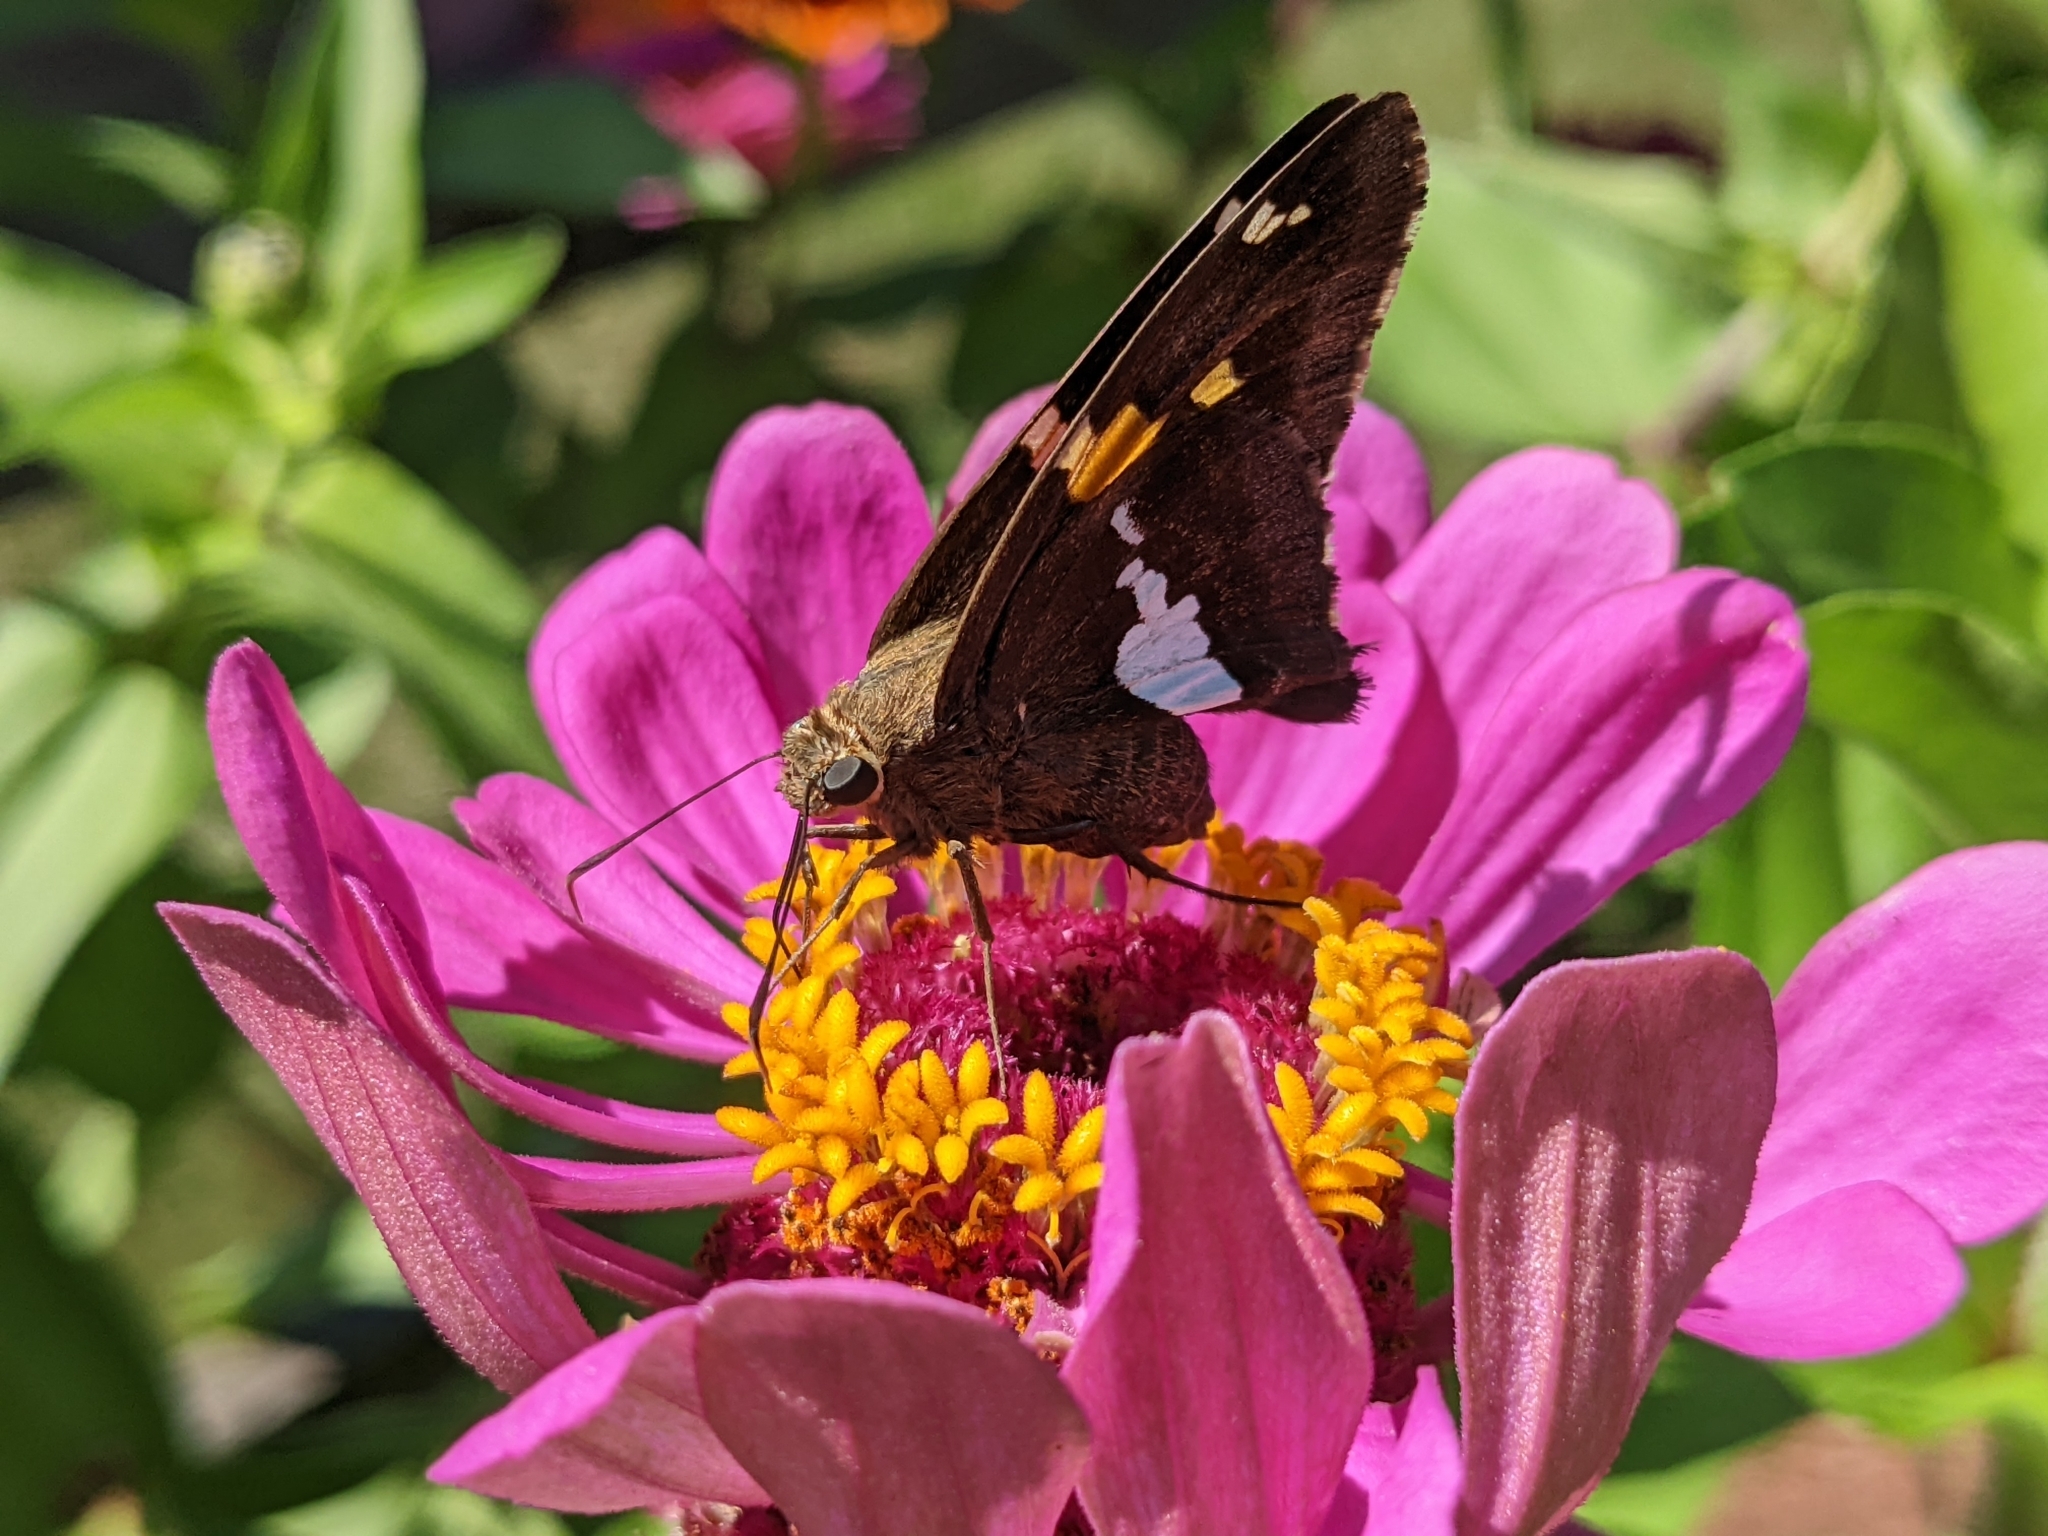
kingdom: Animalia
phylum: Arthropoda
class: Insecta
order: Lepidoptera
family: Hesperiidae
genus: Epargyreus
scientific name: Epargyreus clarus
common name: Silver-spotted skipper
